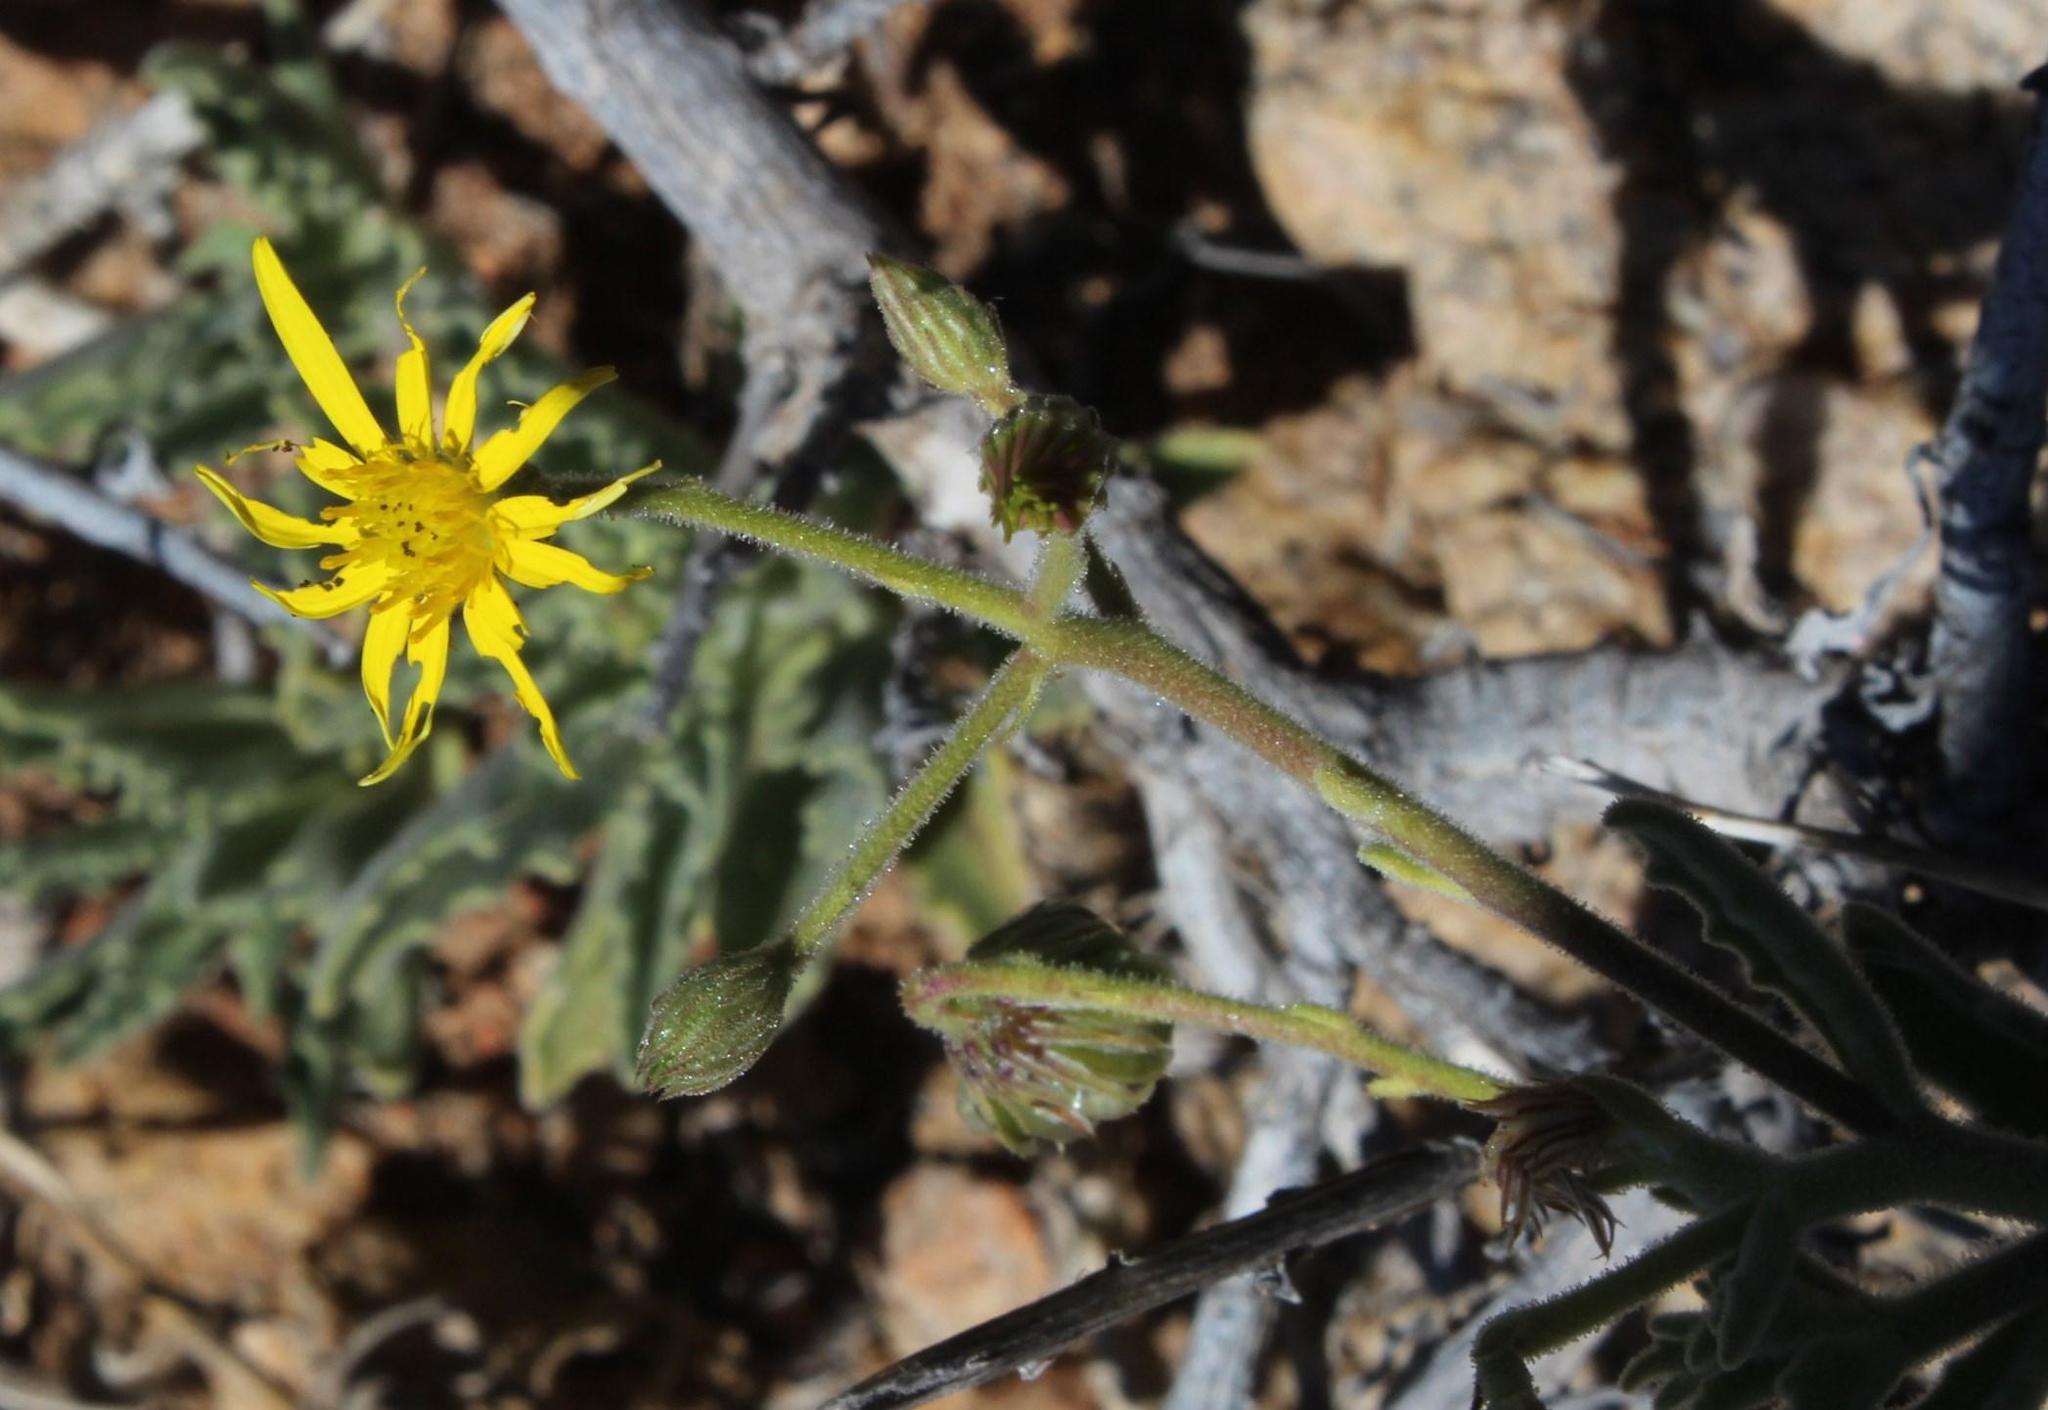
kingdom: Plantae
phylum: Tracheophyta
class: Magnoliopsida
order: Asterales
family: Asteraceae
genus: Osteospermum
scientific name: Osteospermum microcarpum
